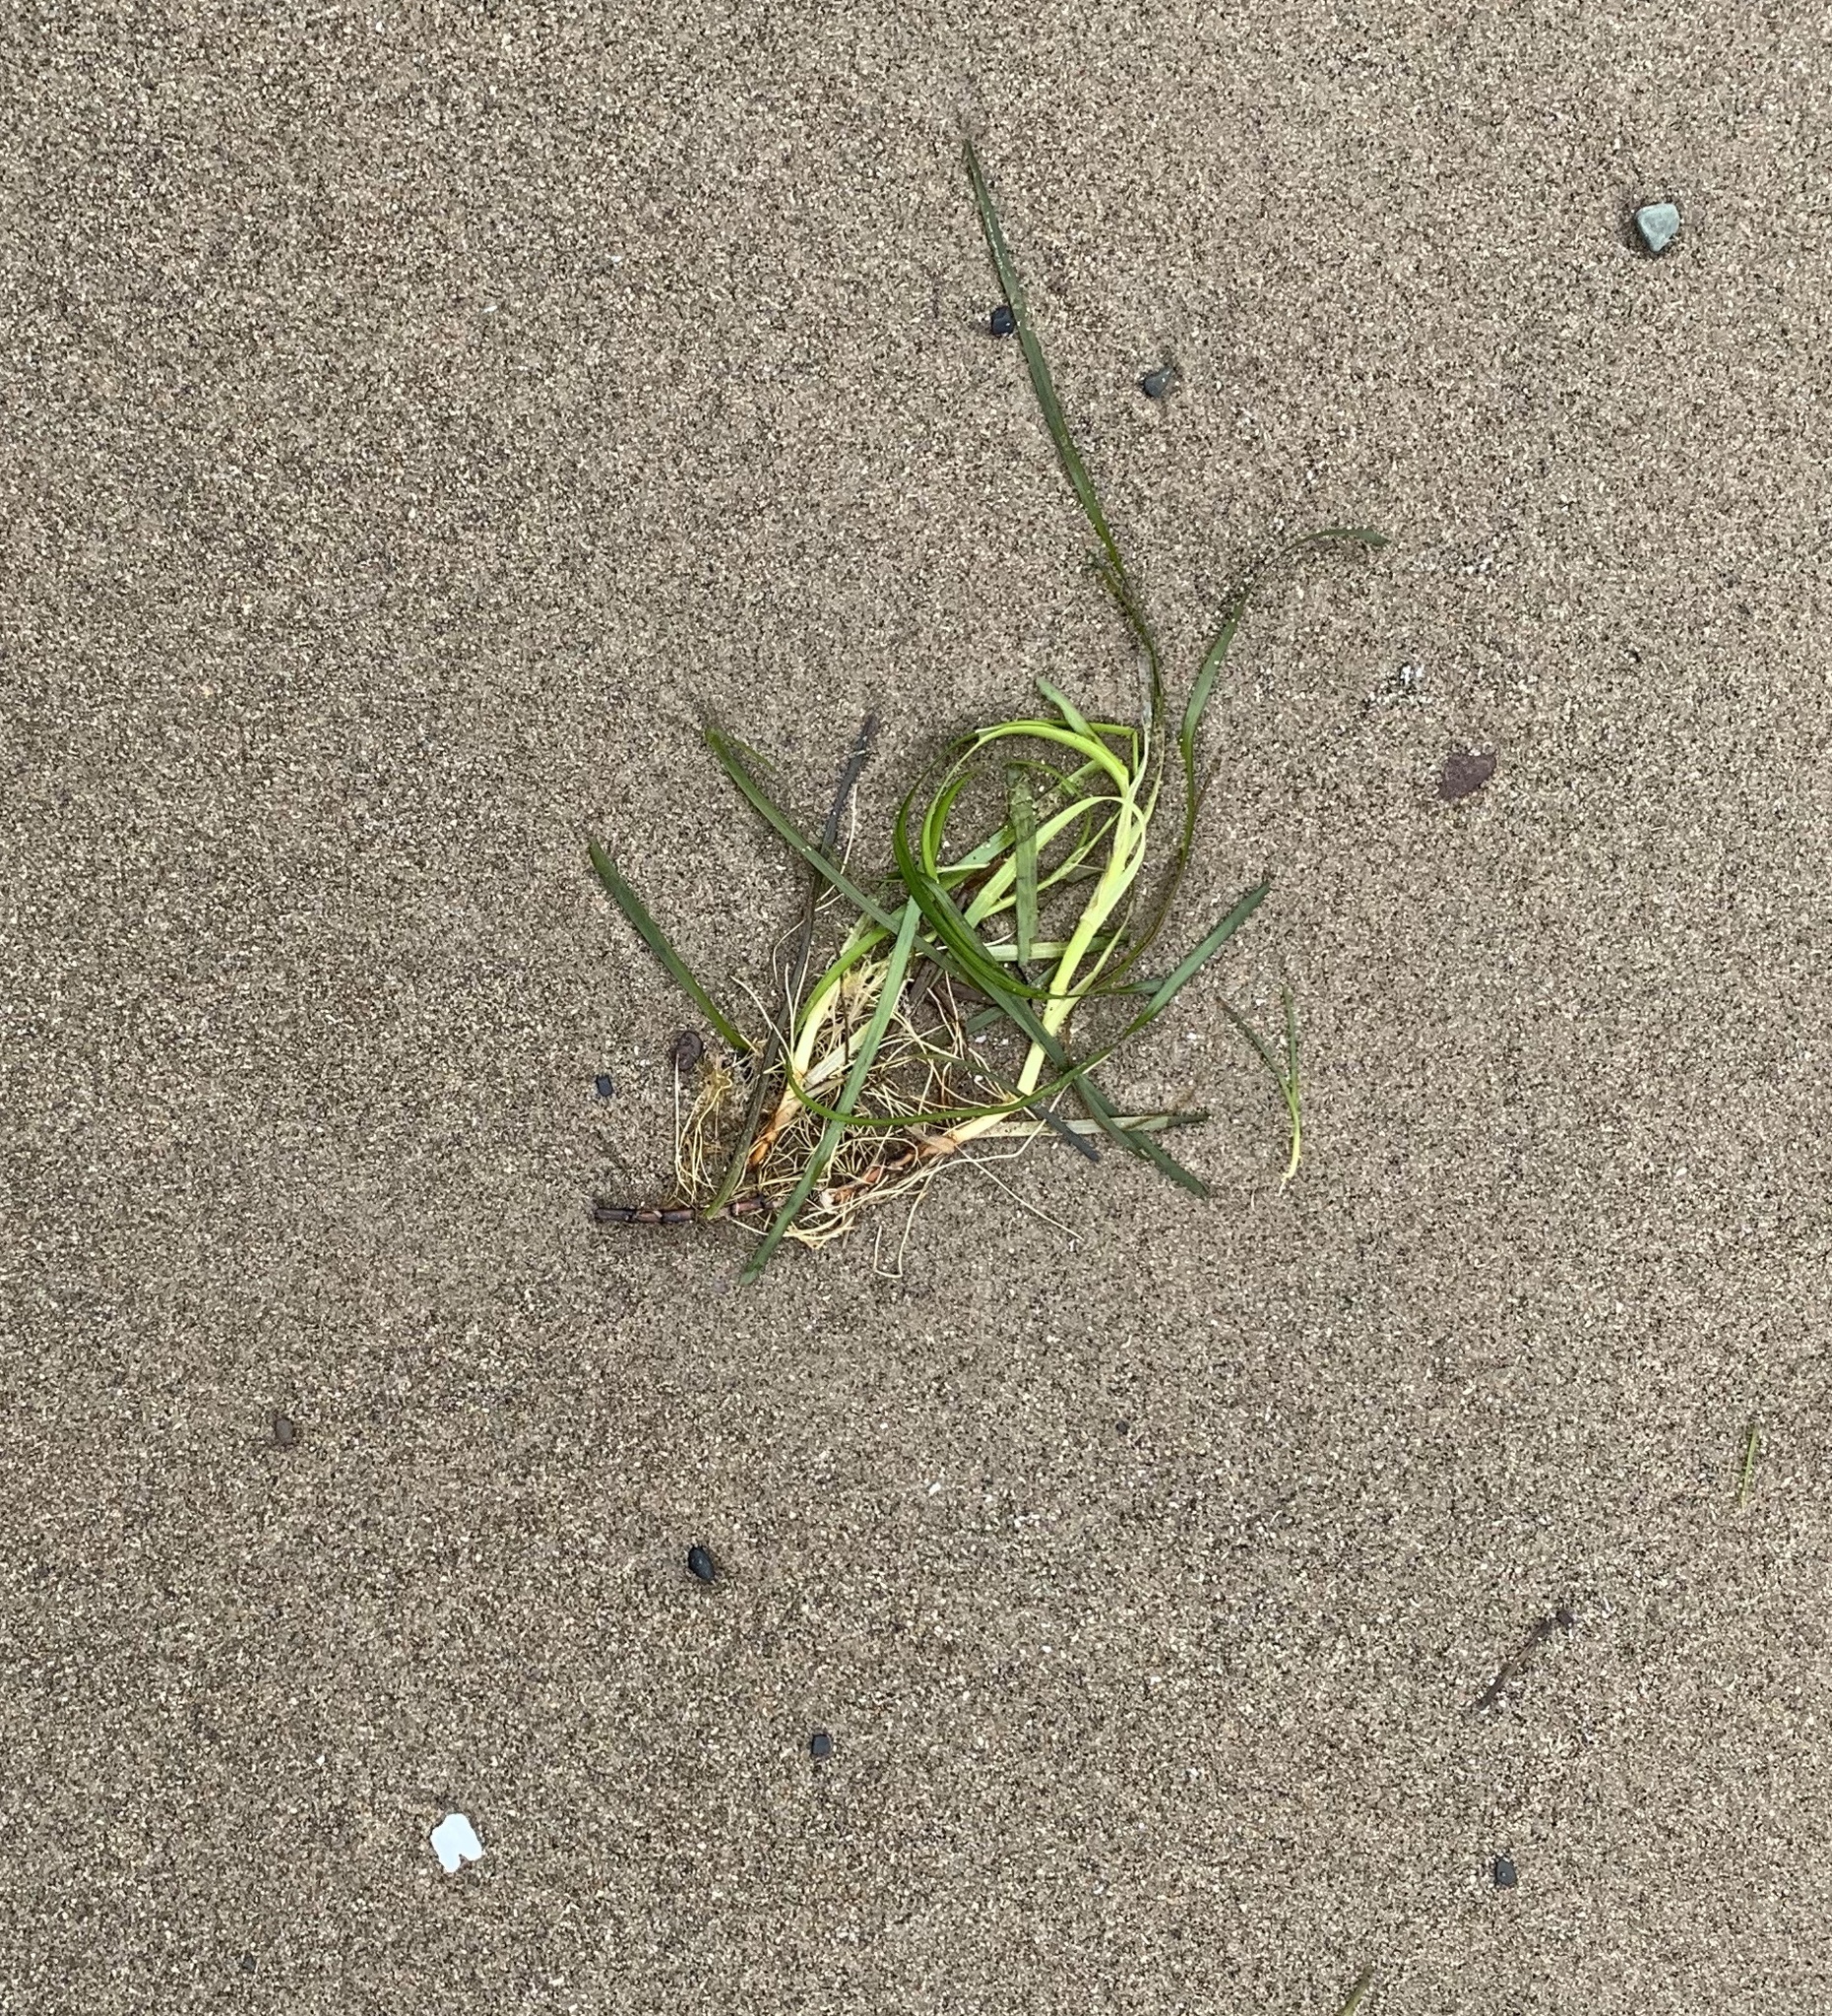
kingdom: Plantae
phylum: Tracheophyta
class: Liliopsida
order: Alismatales
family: Zosteraceae
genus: Zostera
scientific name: Zostera marina
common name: Eelgrass
